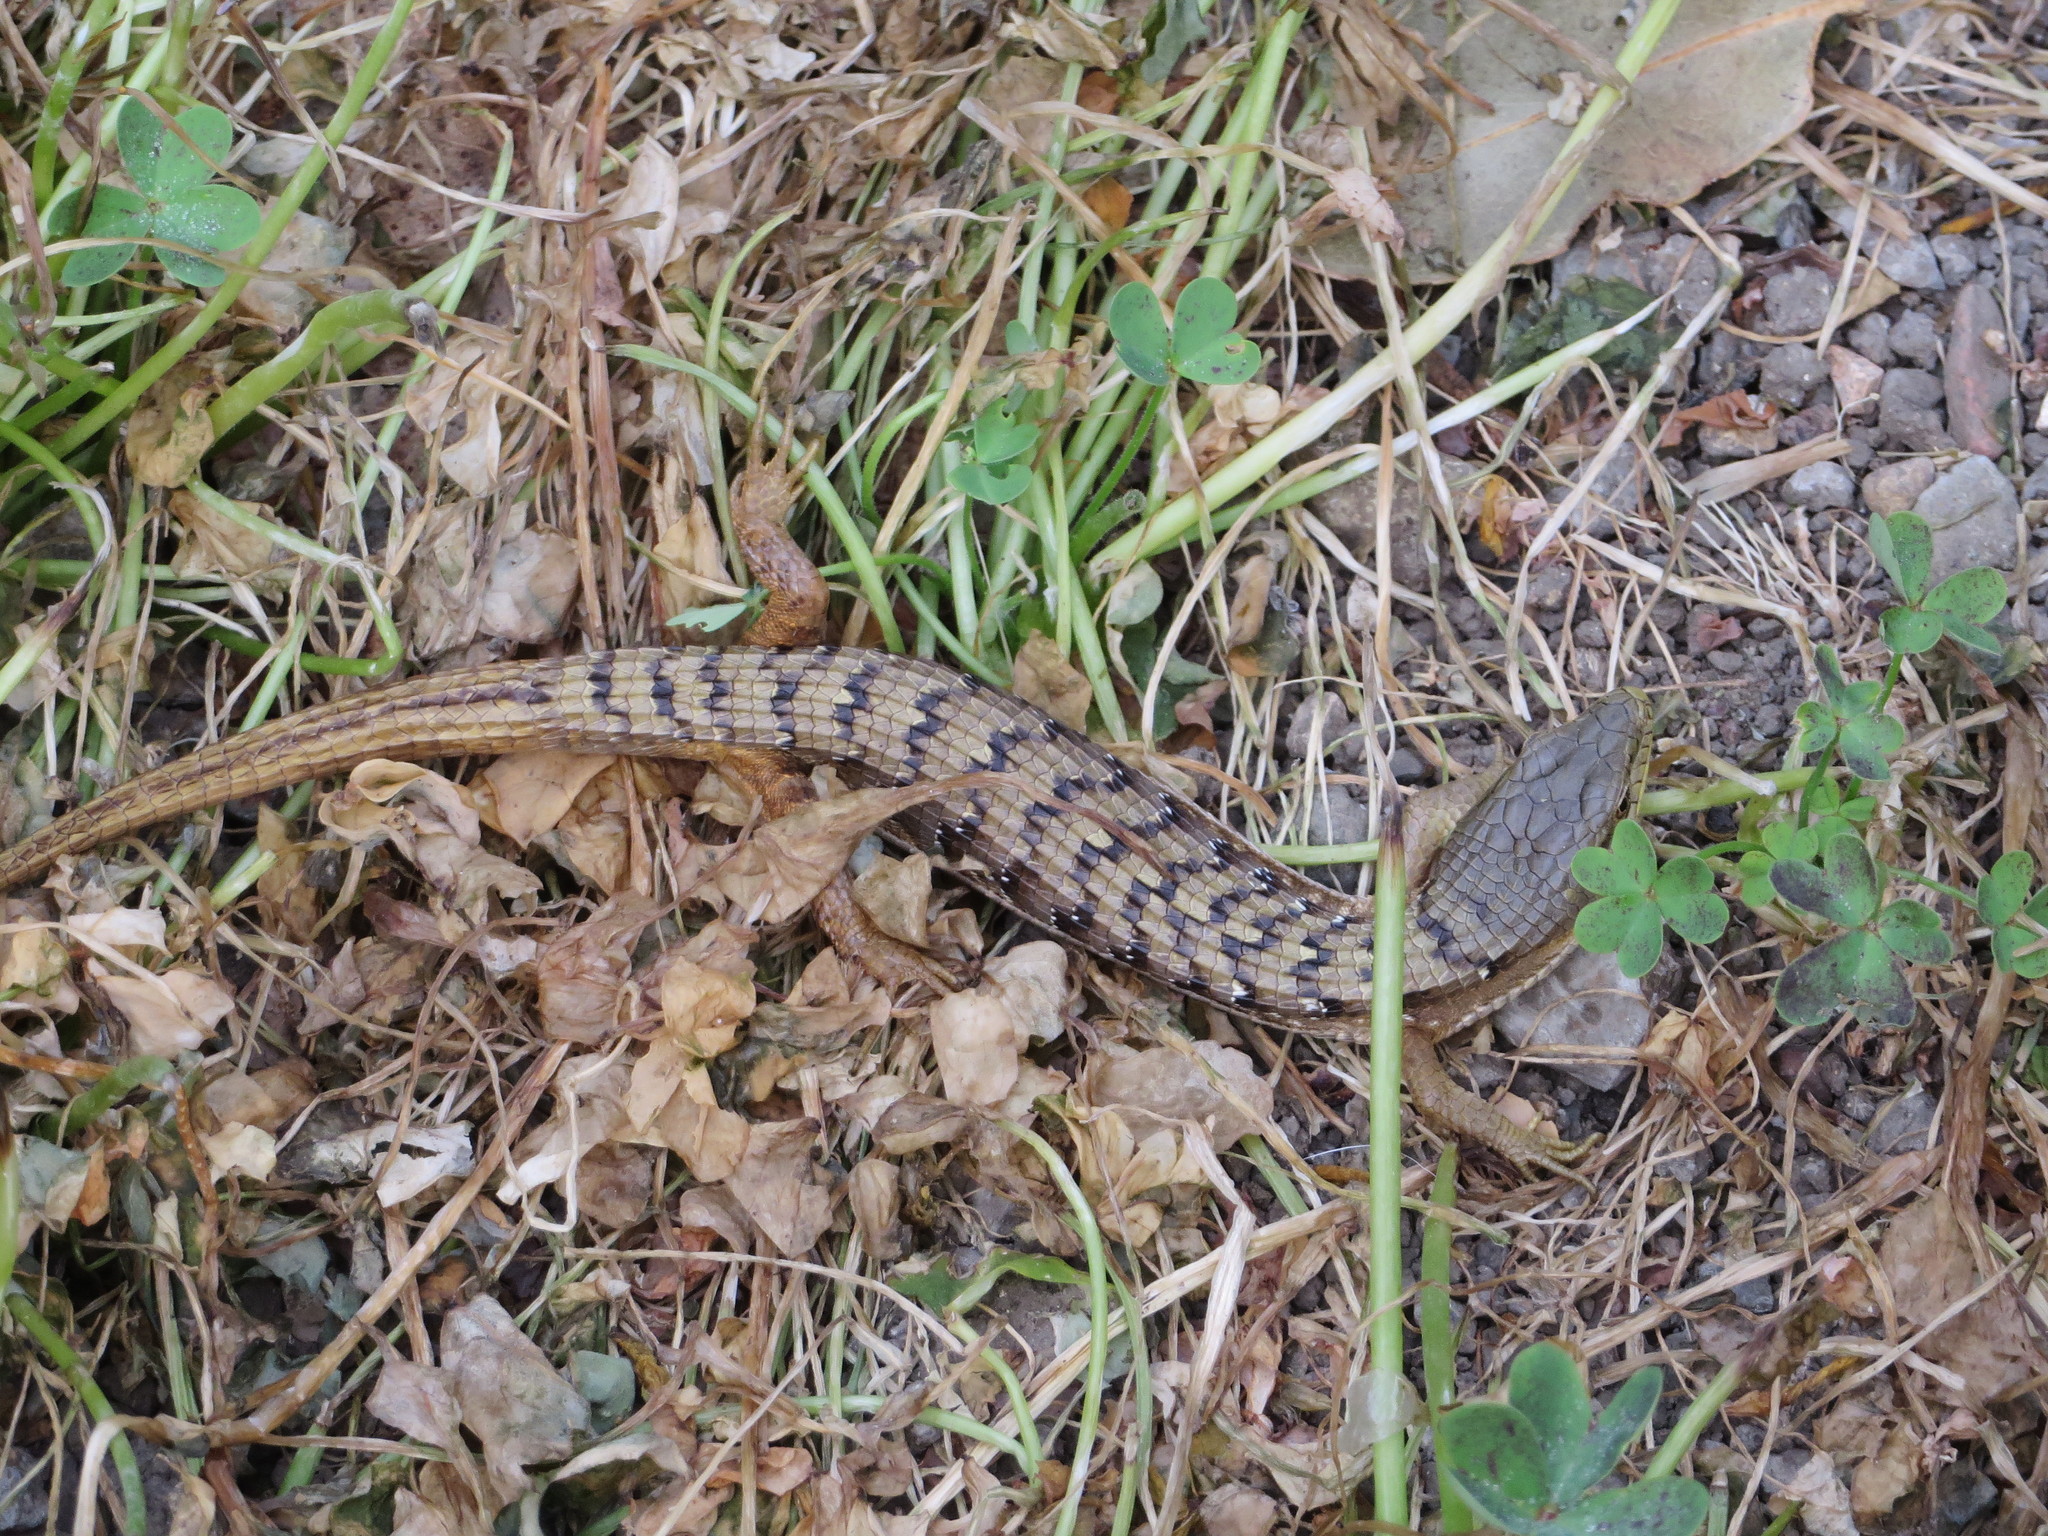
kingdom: Animalia
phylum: Chordata
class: Squamata
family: Anguidae
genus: Elgaria
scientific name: Elgaria multicarinata
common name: Southern alligator lizard
